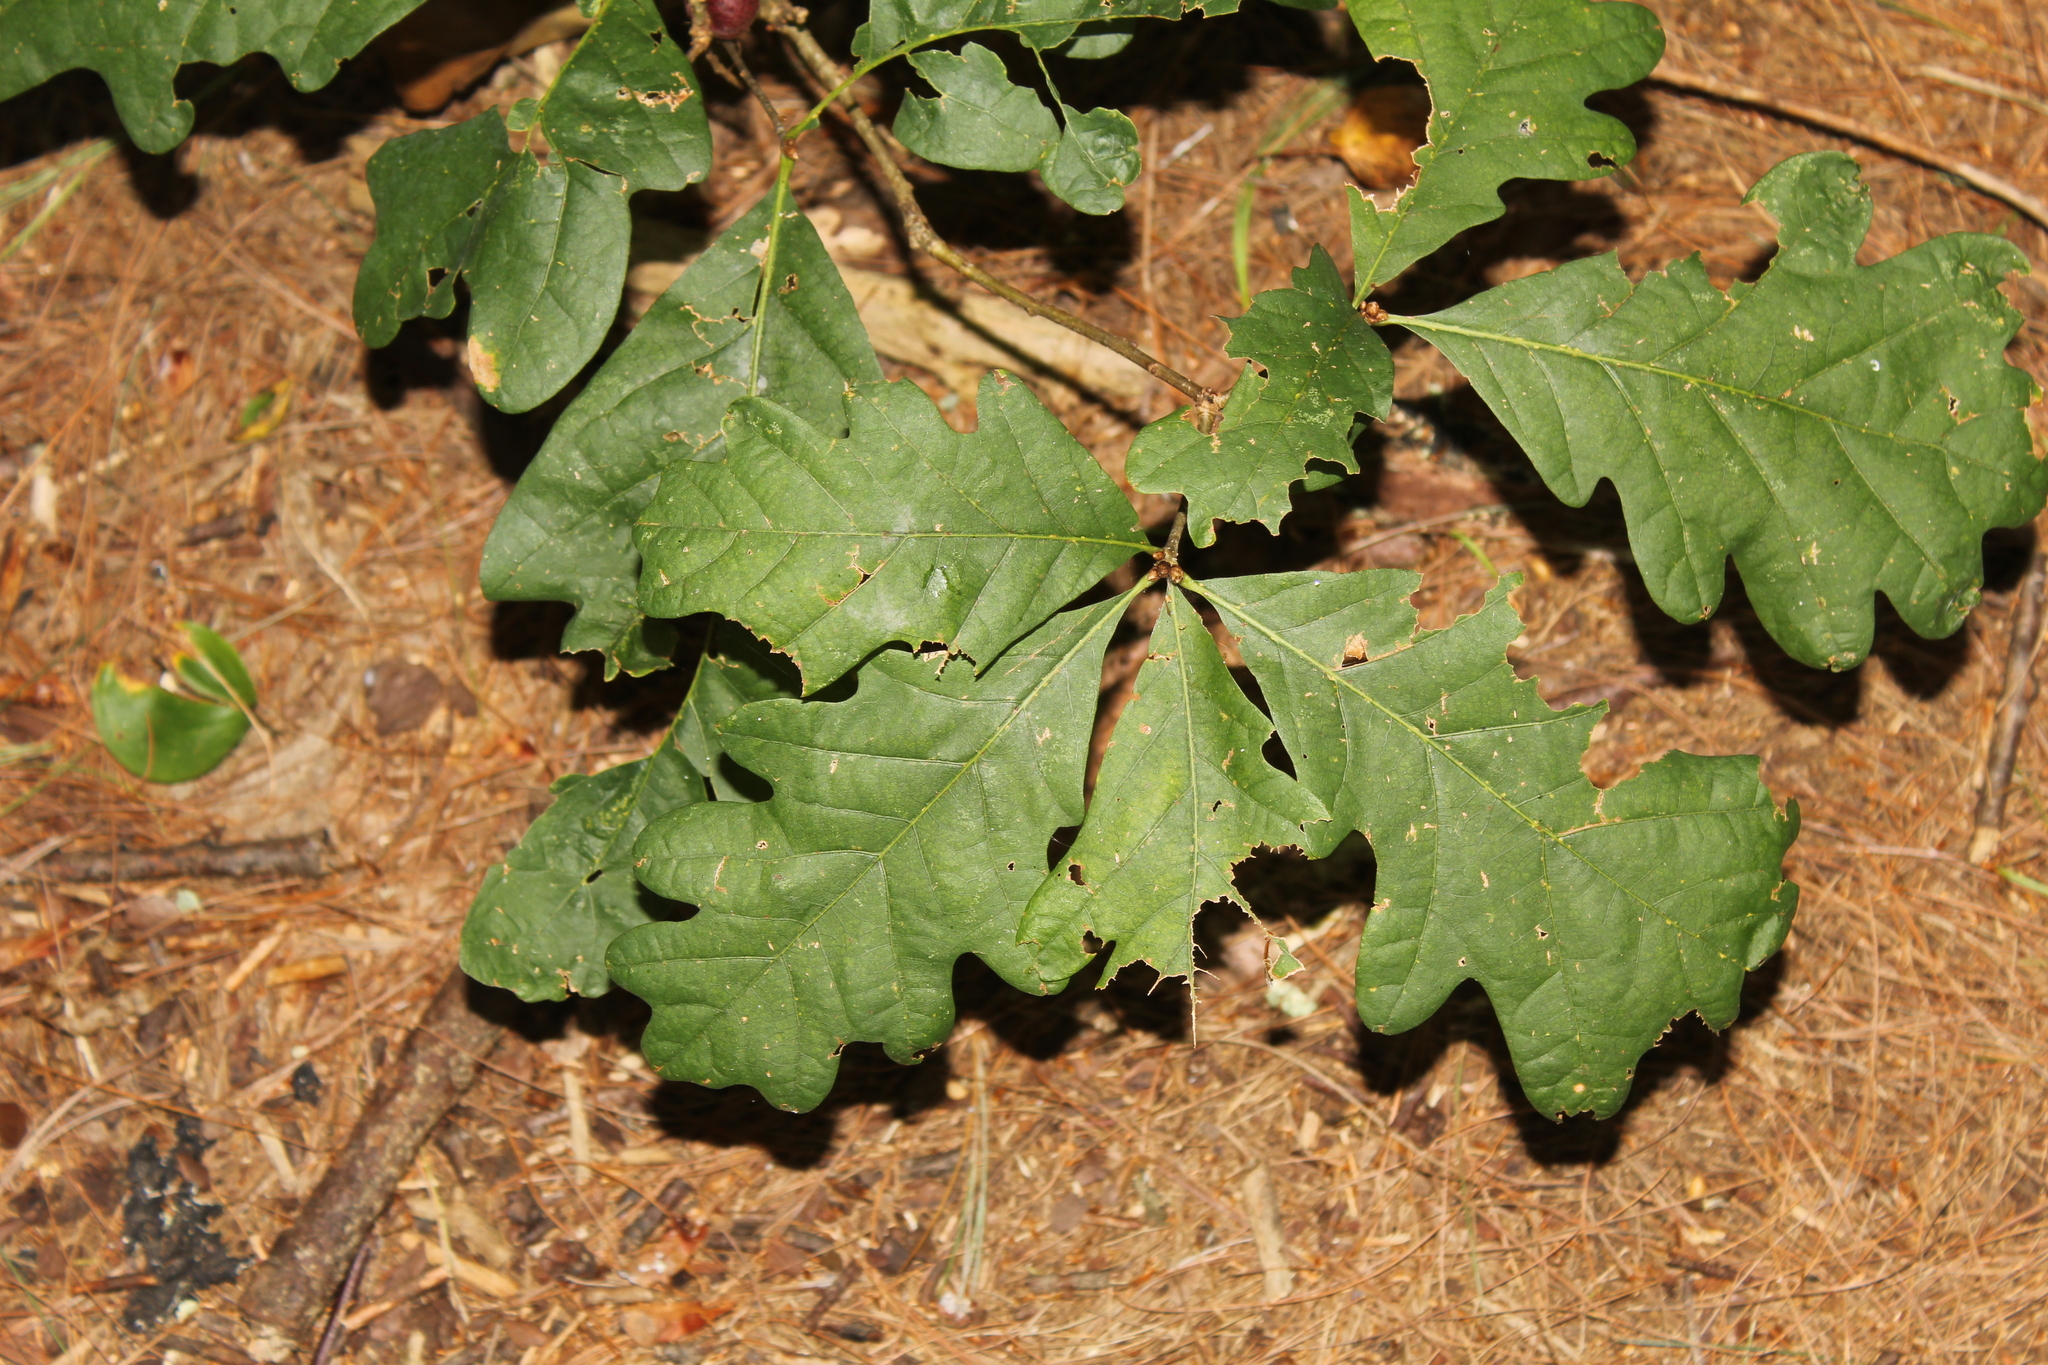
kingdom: Plantae
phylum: Tracheophyta
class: Magnoliopsida
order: Fagales
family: Fagaceae
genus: Quercus
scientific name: Quercus alba
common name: White oak
